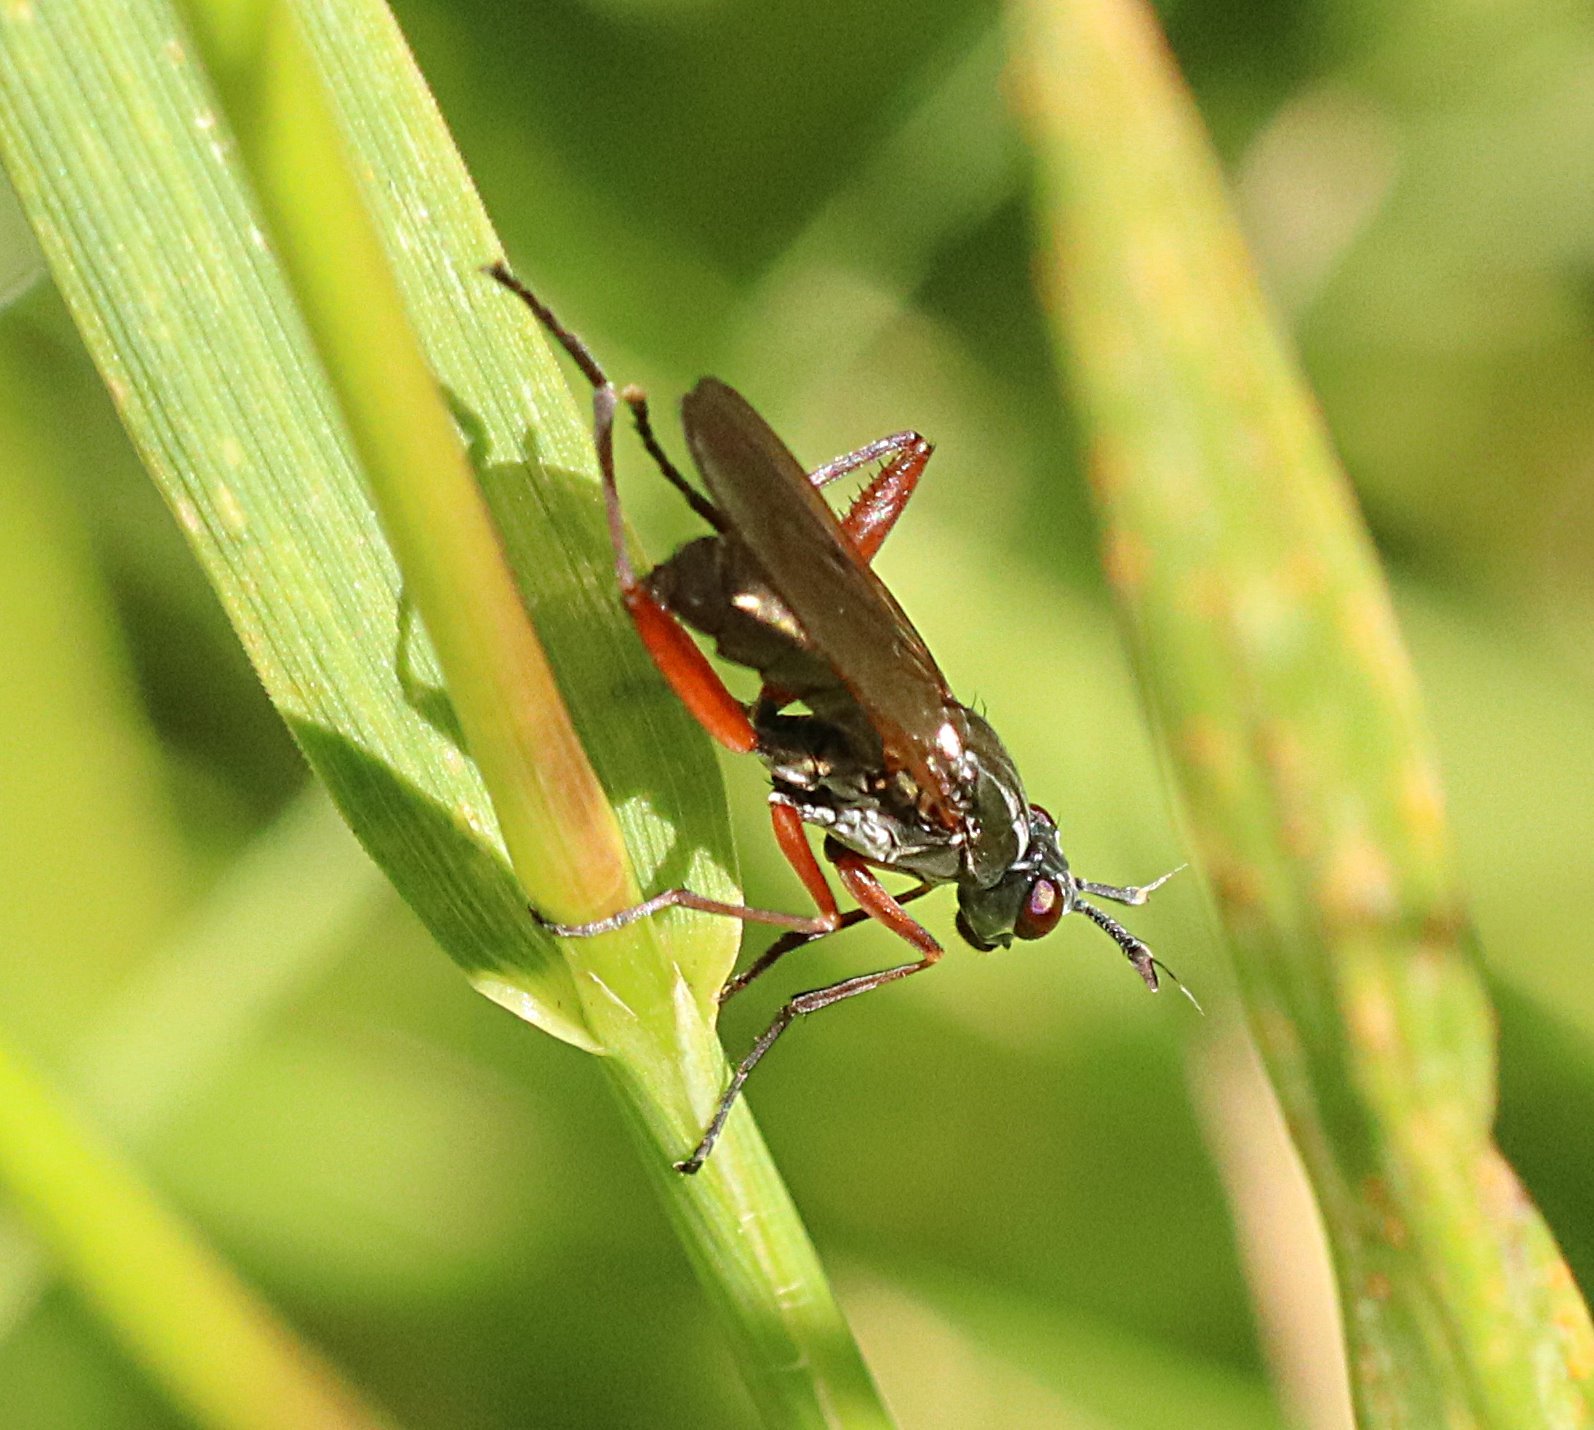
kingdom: Animalia
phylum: Arthropoda
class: Insecta
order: Diptera
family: Sciomyzidae
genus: Sepedon
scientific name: Sepedon sphegea
